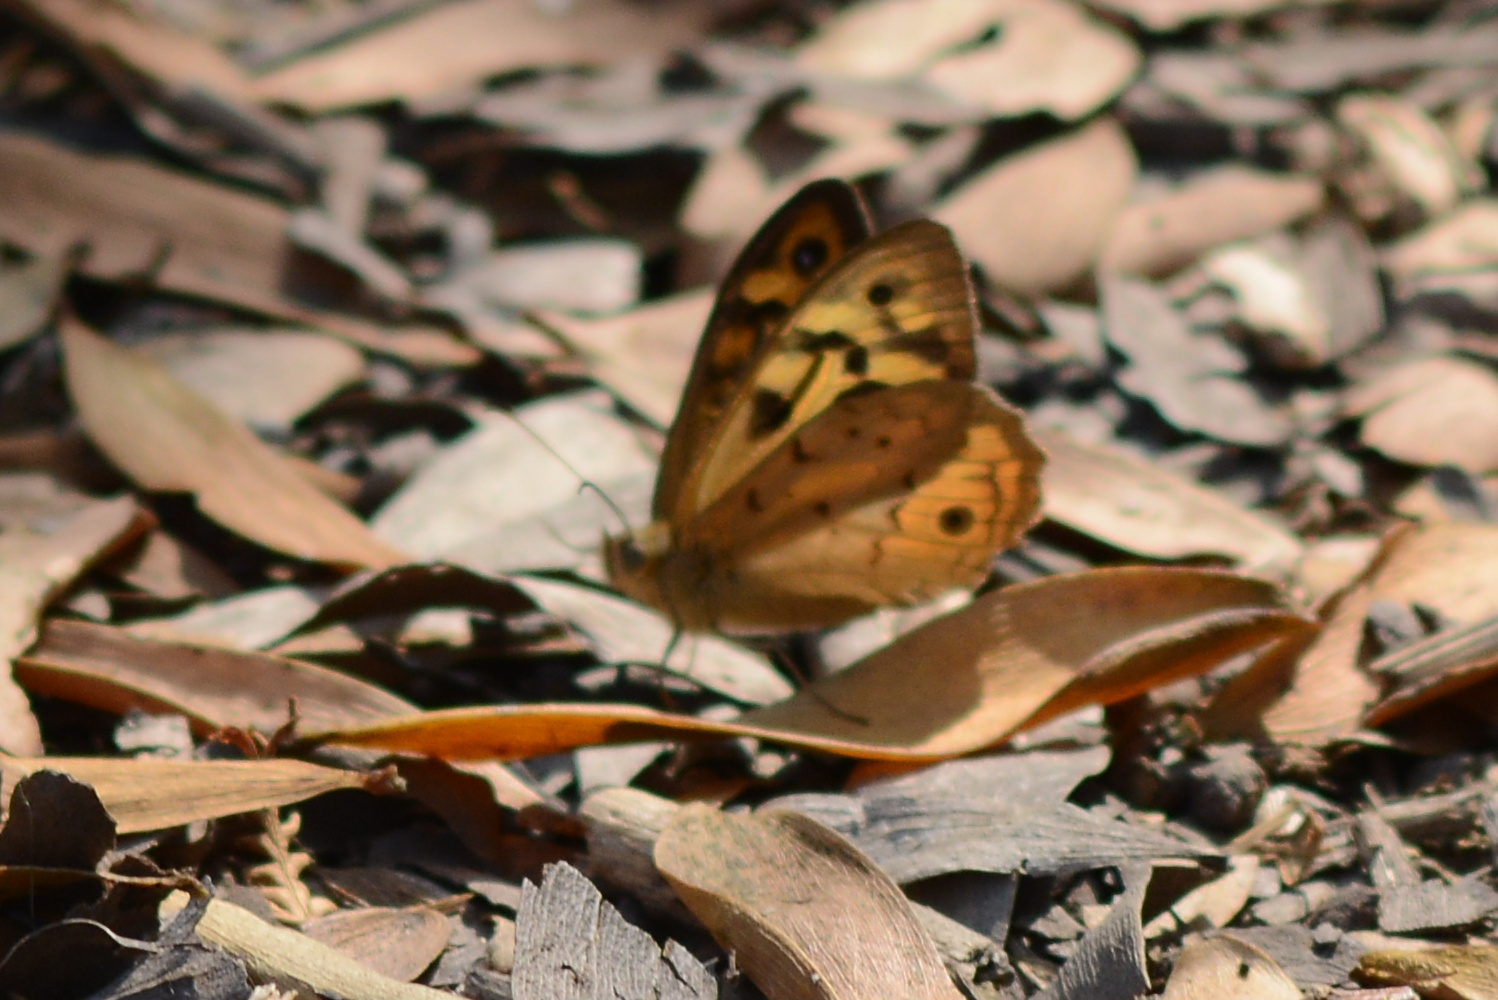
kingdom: Animalia
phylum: Arthropoda
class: Insecta
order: Lepidoptera
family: Nymphalidae
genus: Heteronympha
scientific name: Heteronympha merope
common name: Common brown
